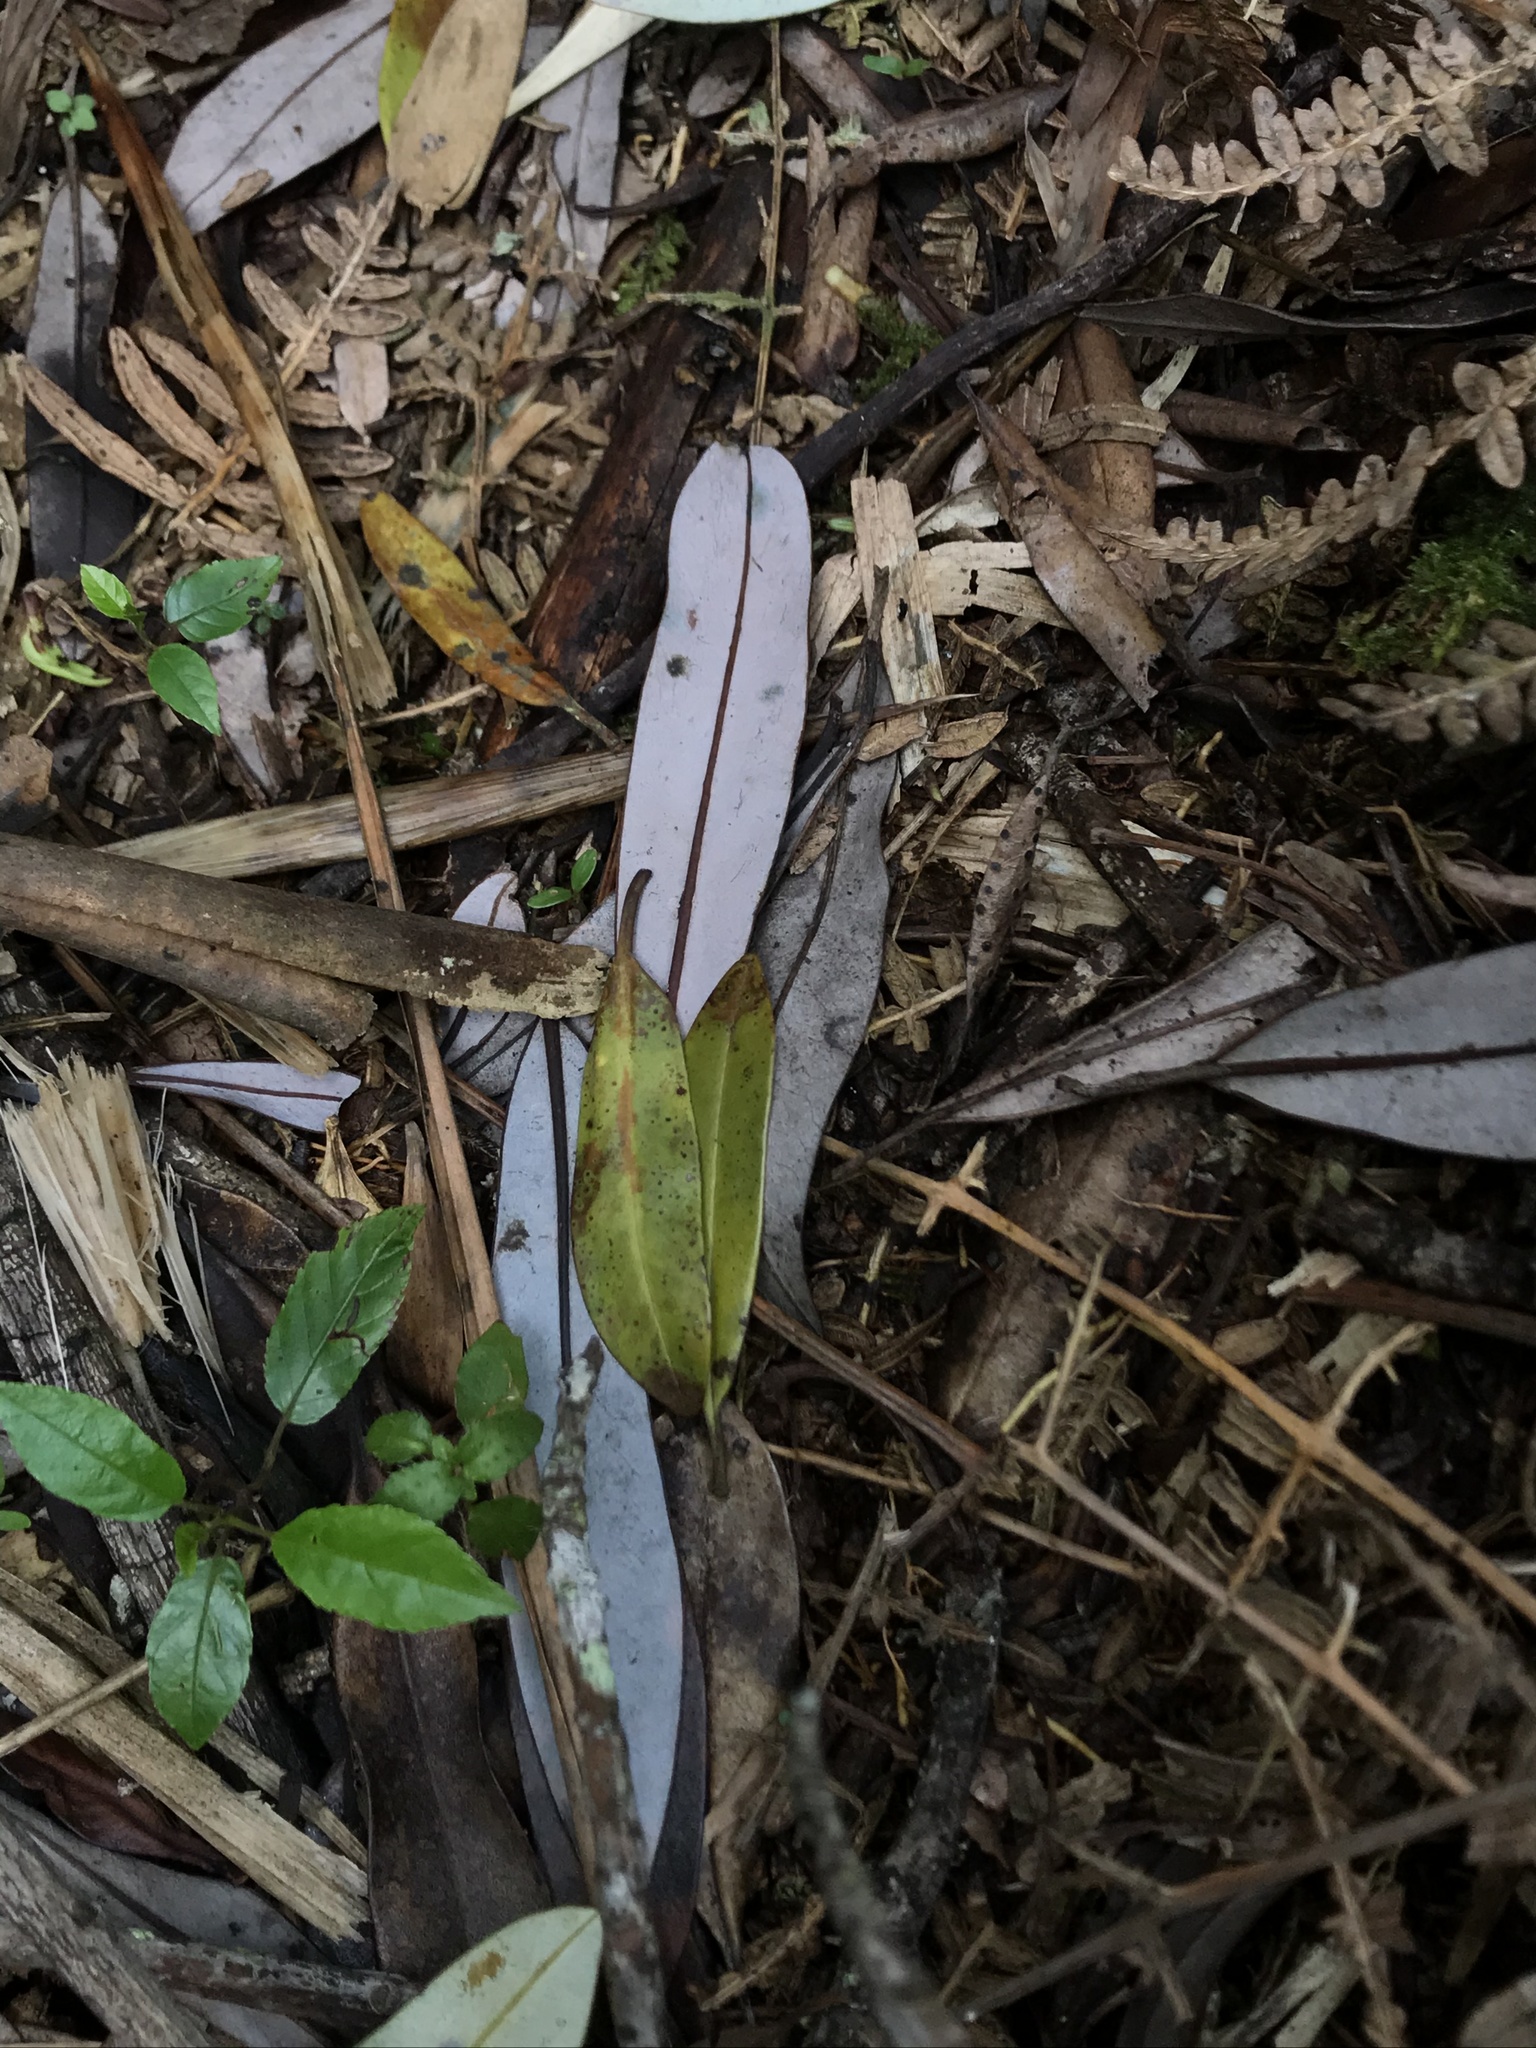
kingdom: Plantae
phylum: Tracheophyta
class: Magnoliopsida
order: Canellales
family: Winteraceae
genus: Drimys
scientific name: Drimys granadensis
